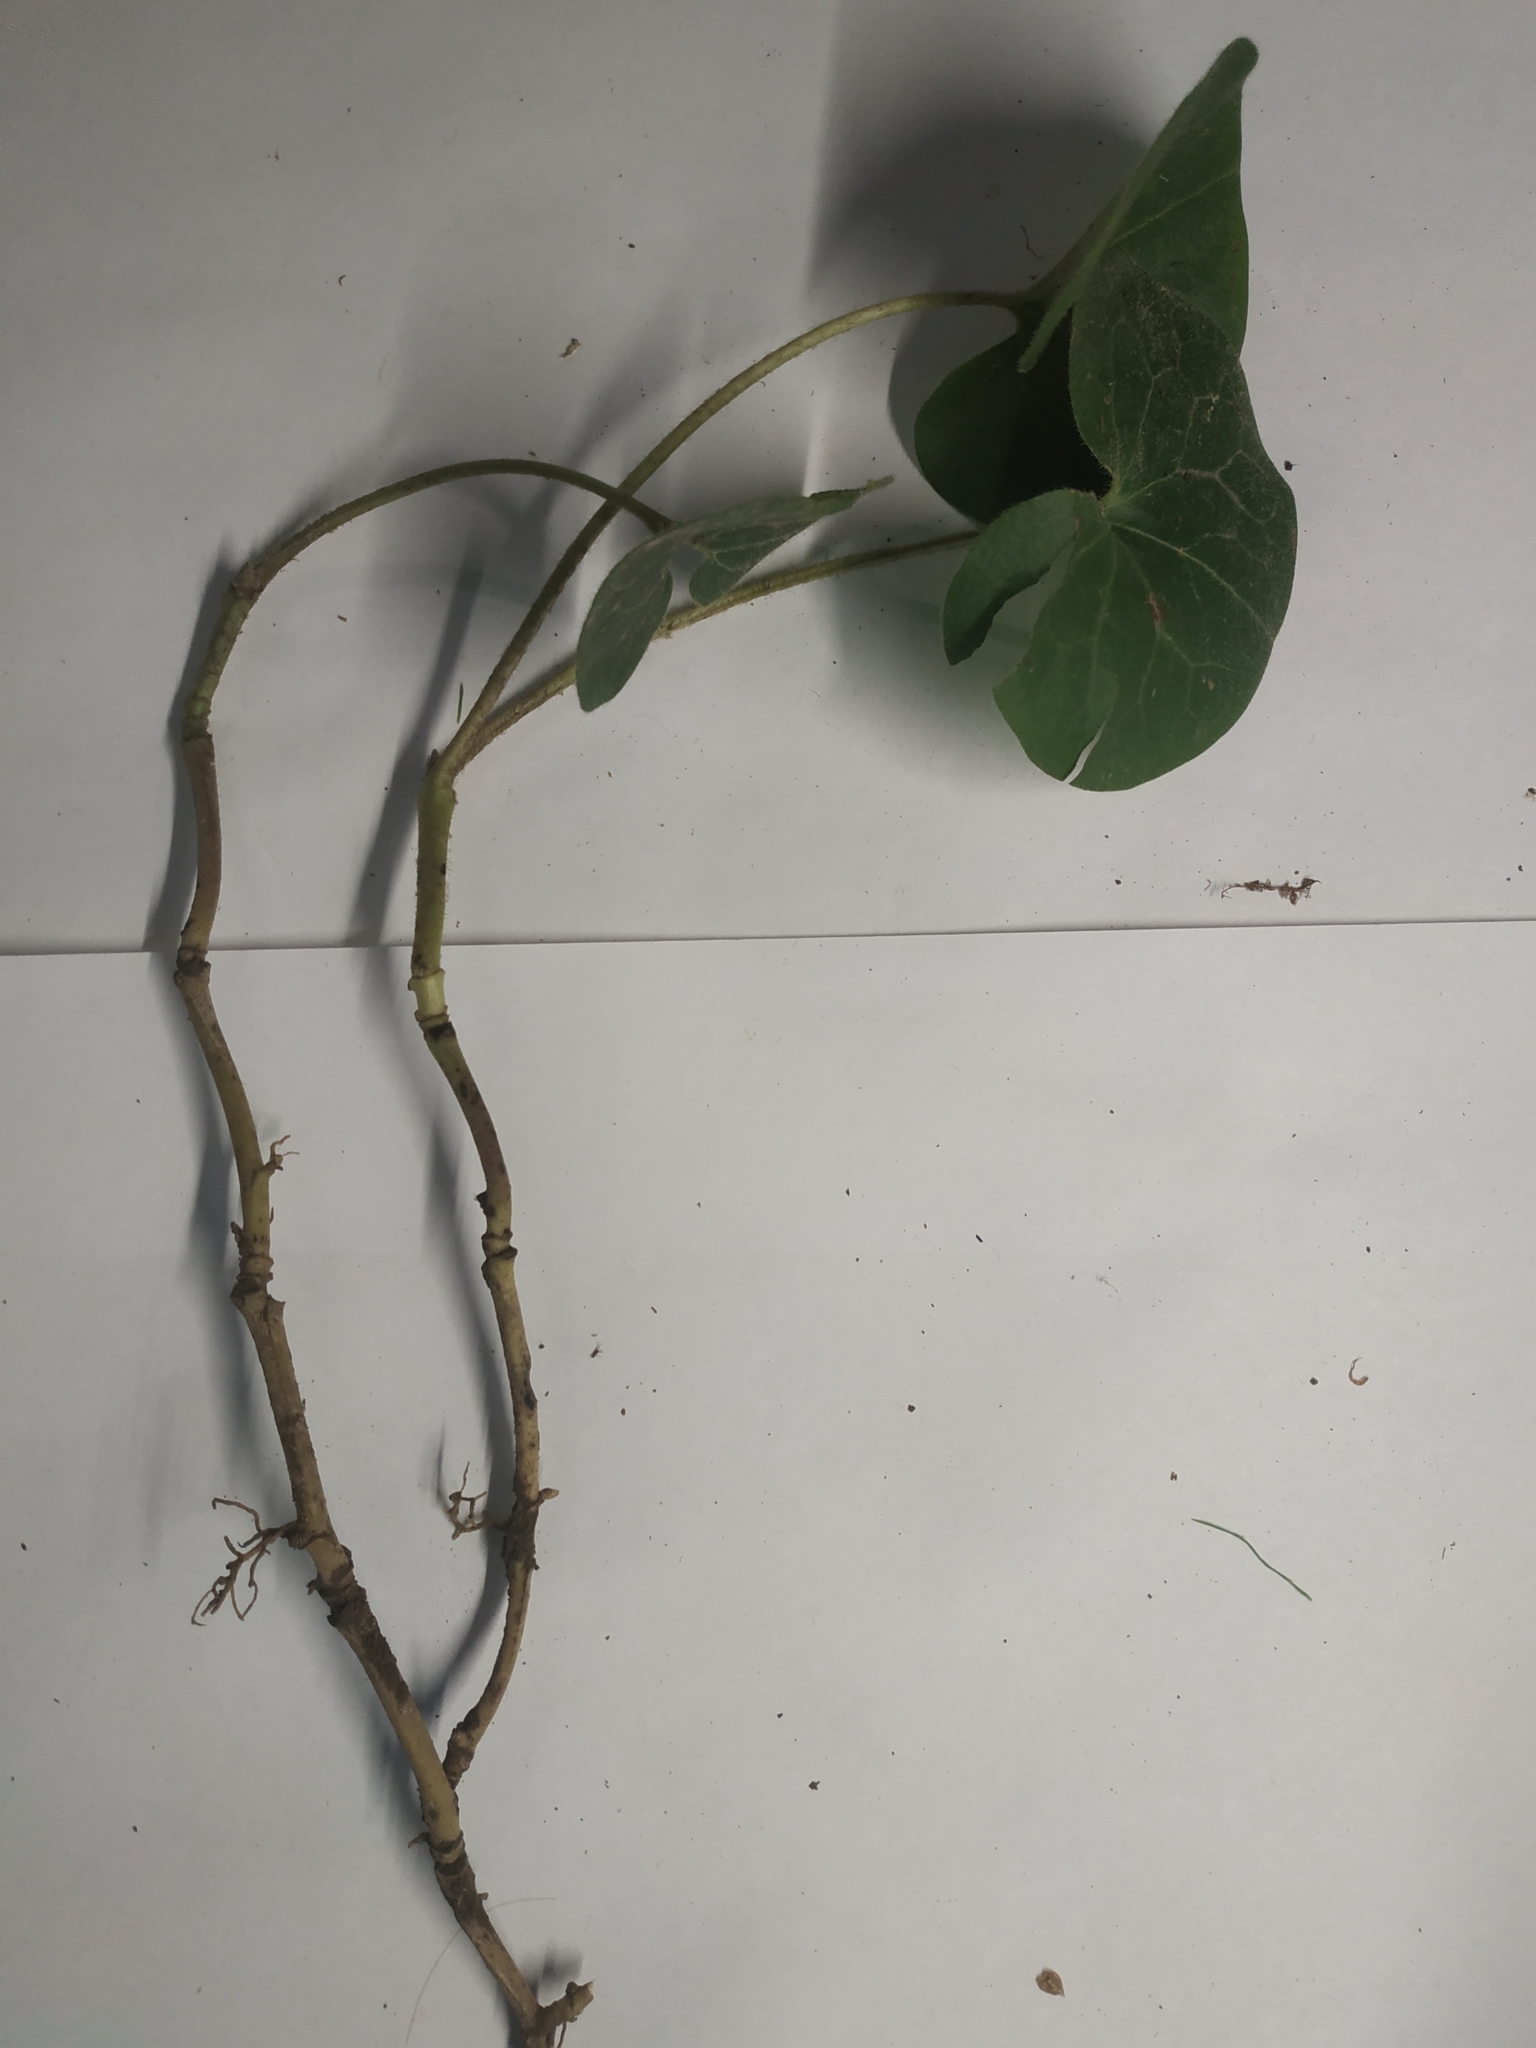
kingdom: Plantae
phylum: Tracheophyta
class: Magnoliopsida
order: Piperales
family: Aristolochiaceae
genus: Asarum
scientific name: Asarum europaeum
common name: Asarabacca
